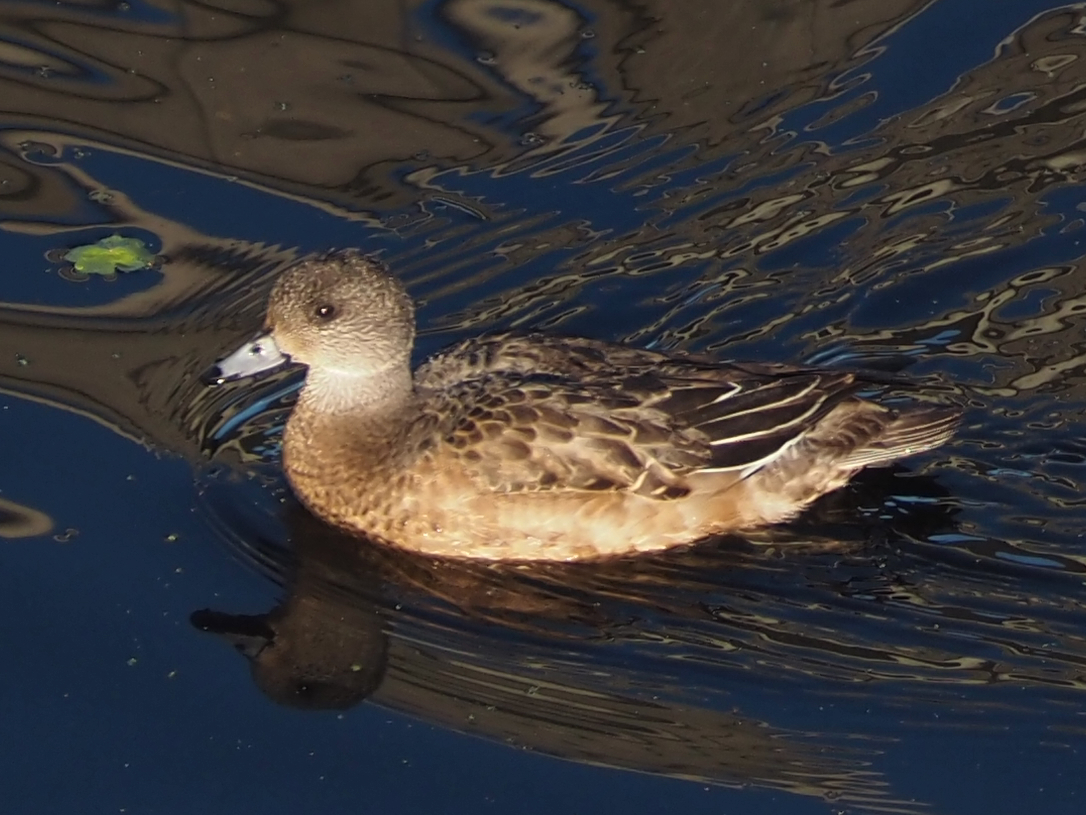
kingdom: Animalia
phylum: Chordata
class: Aves
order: Anseriformes
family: Anatidae
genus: Mareca
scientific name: Mareca americana
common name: American wigeon
